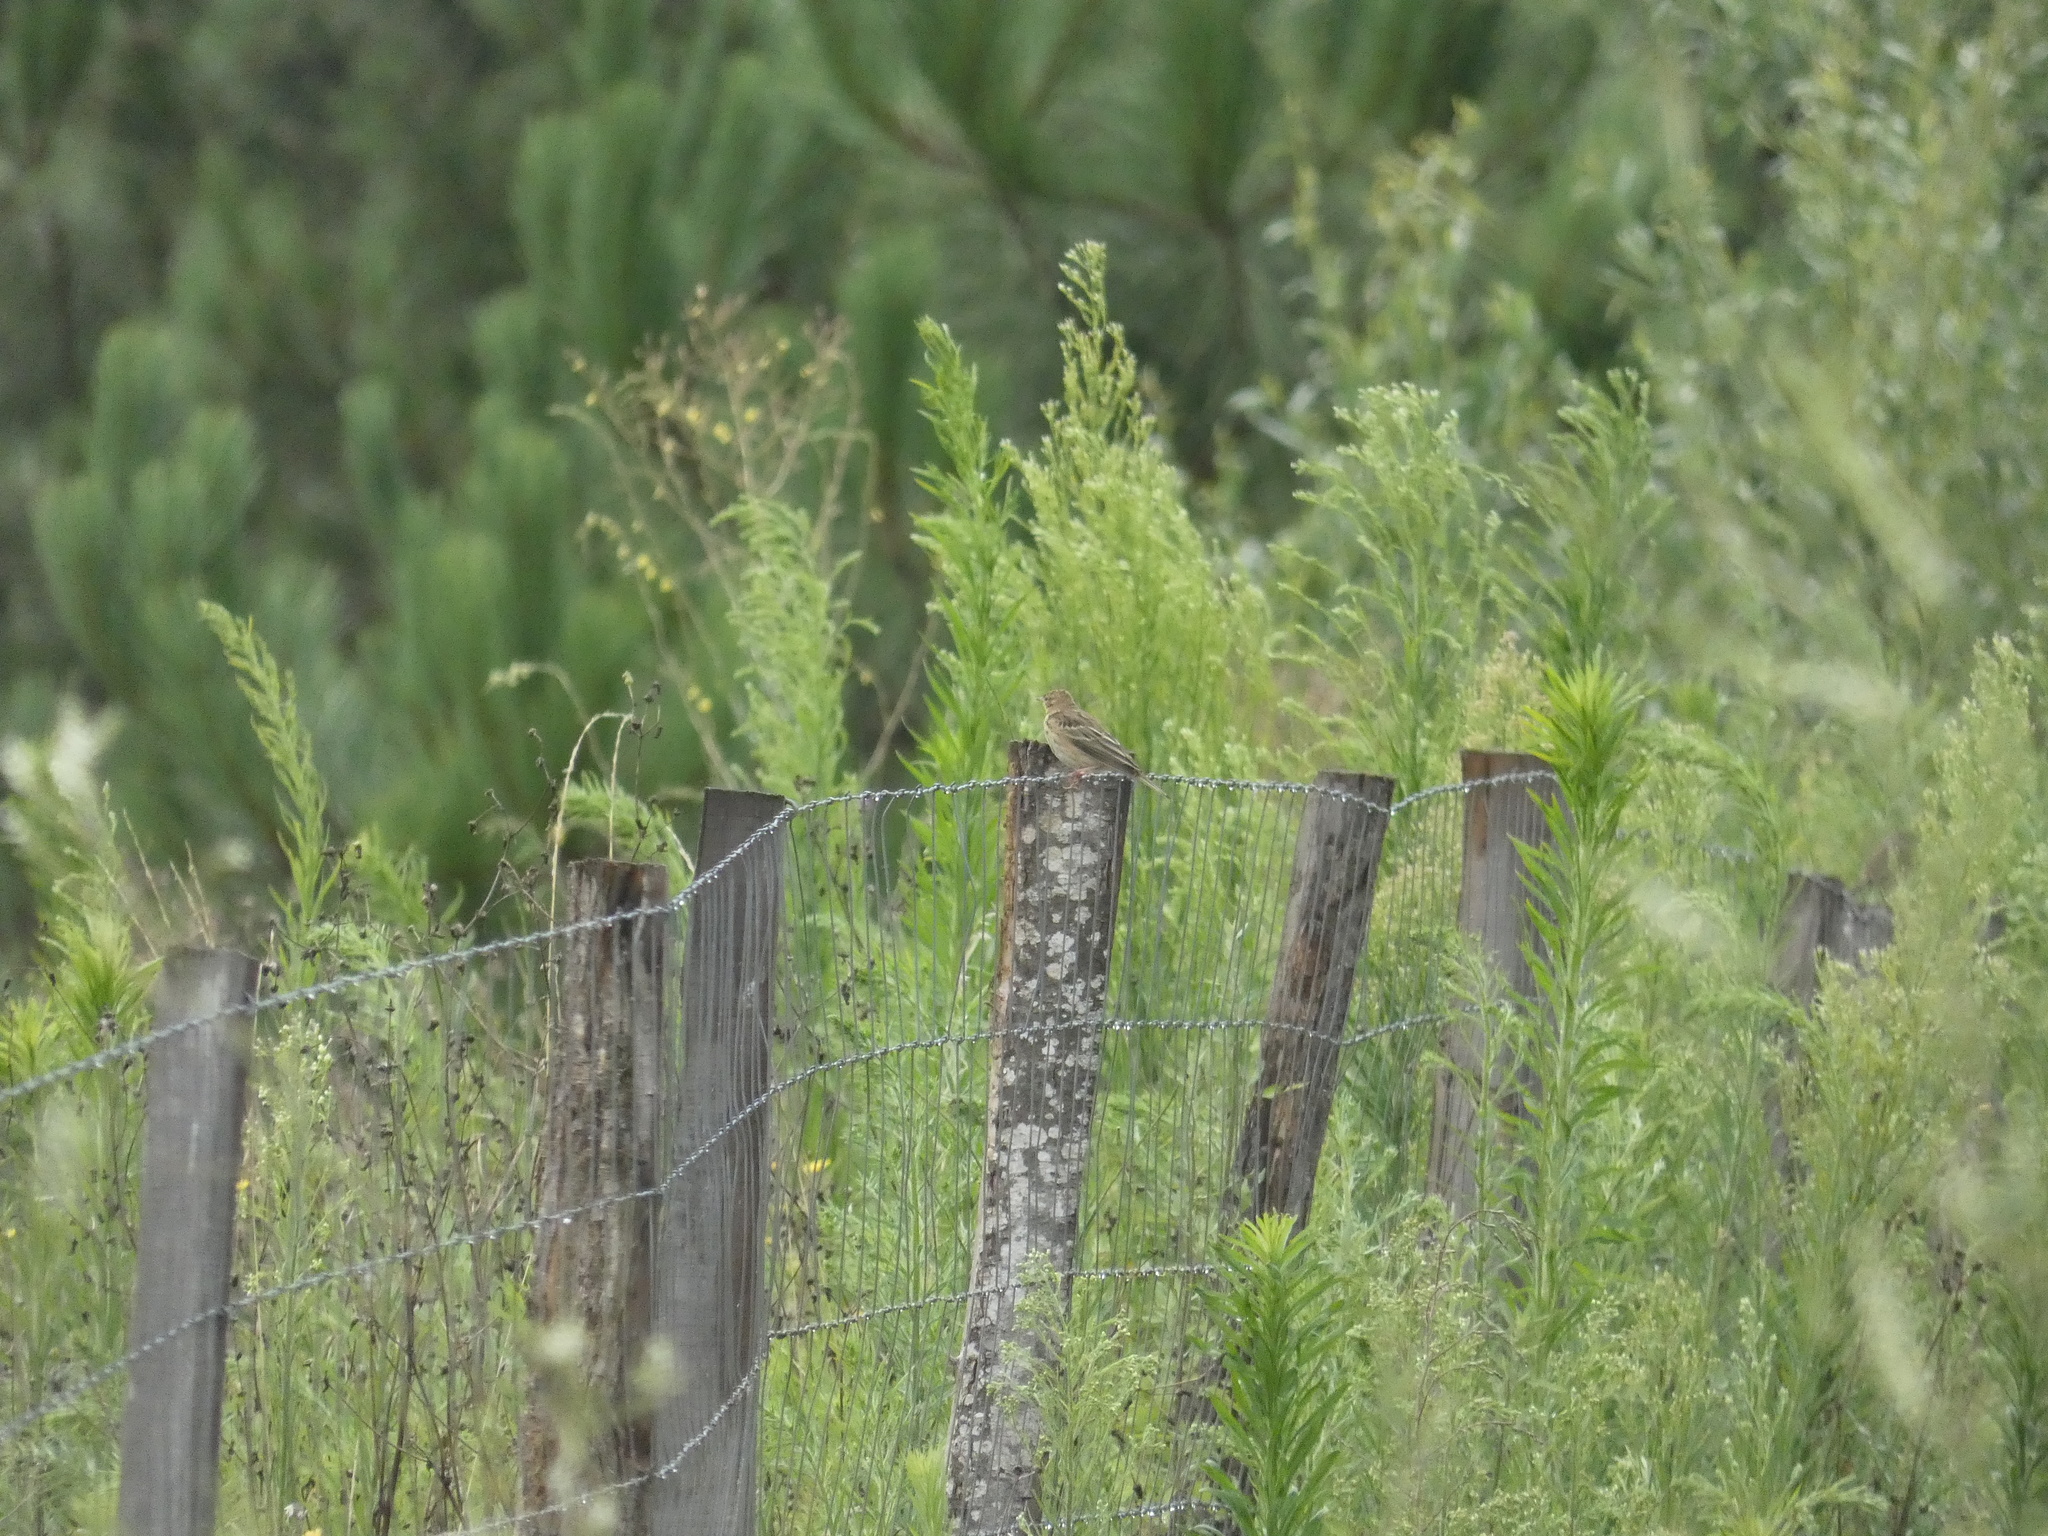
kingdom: Animalia
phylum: Chordata
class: Aves
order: Passeriformes
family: Motacillidae
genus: Anthus
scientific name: Anthus pratensis
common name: Meadow pipit
